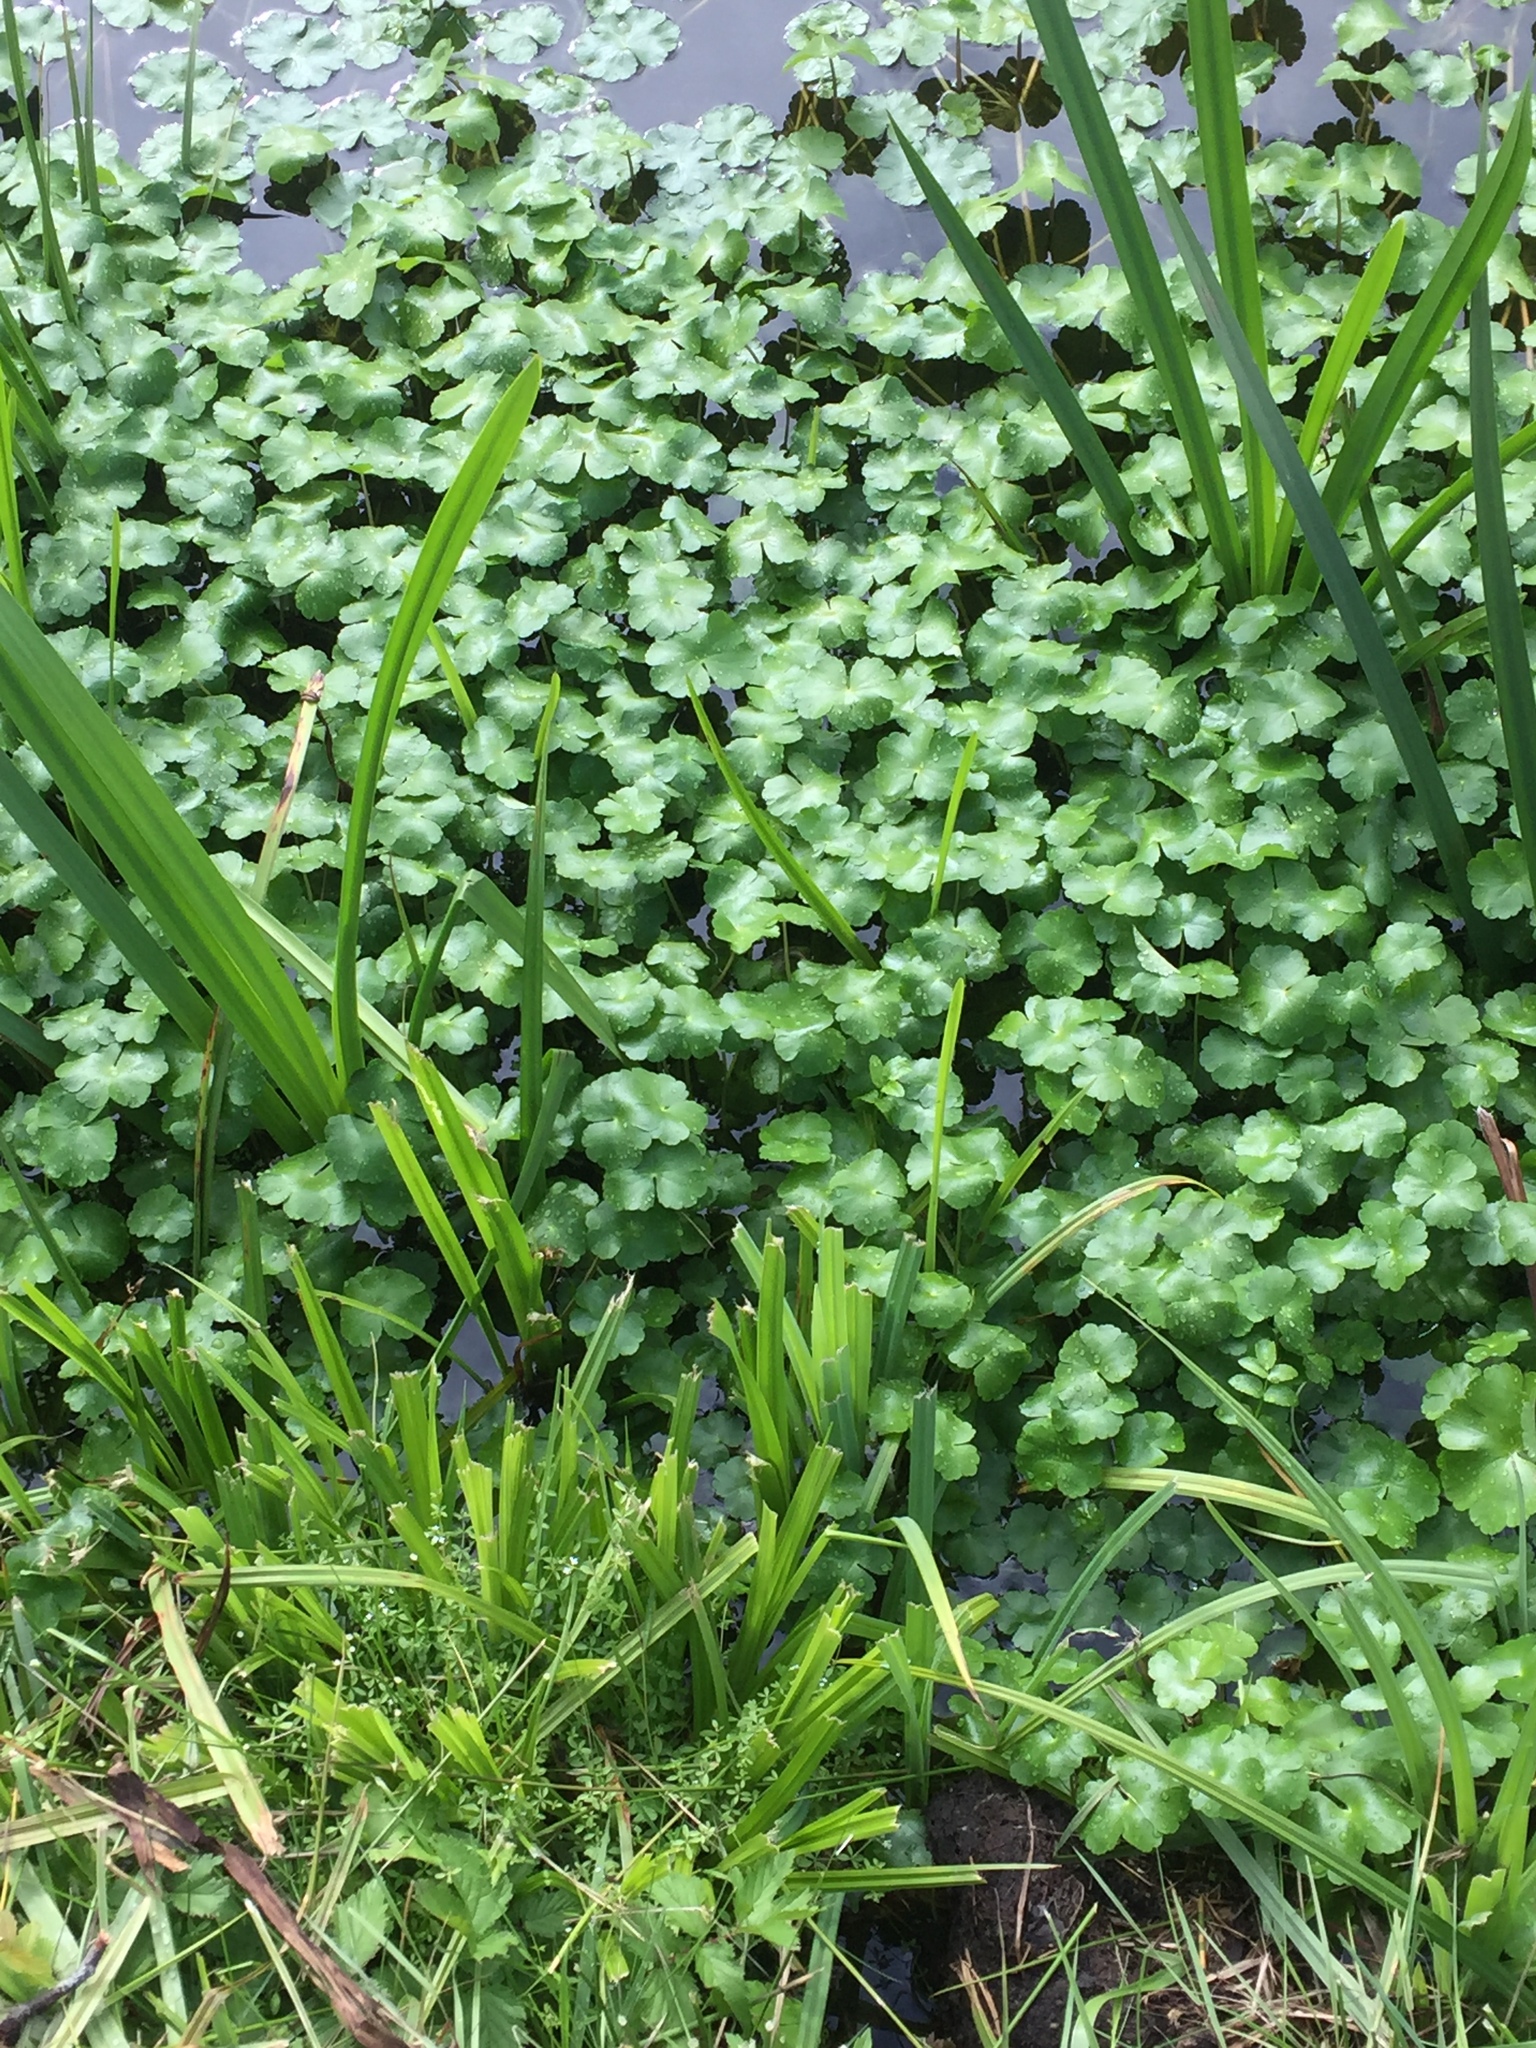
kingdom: Plantae
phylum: Tracheophyta
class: Magnoliopsida
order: Apiales
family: Araliaceae
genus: Hydrocotyle
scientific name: Hydrocotyle ranunculoides
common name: Floating pennywort
